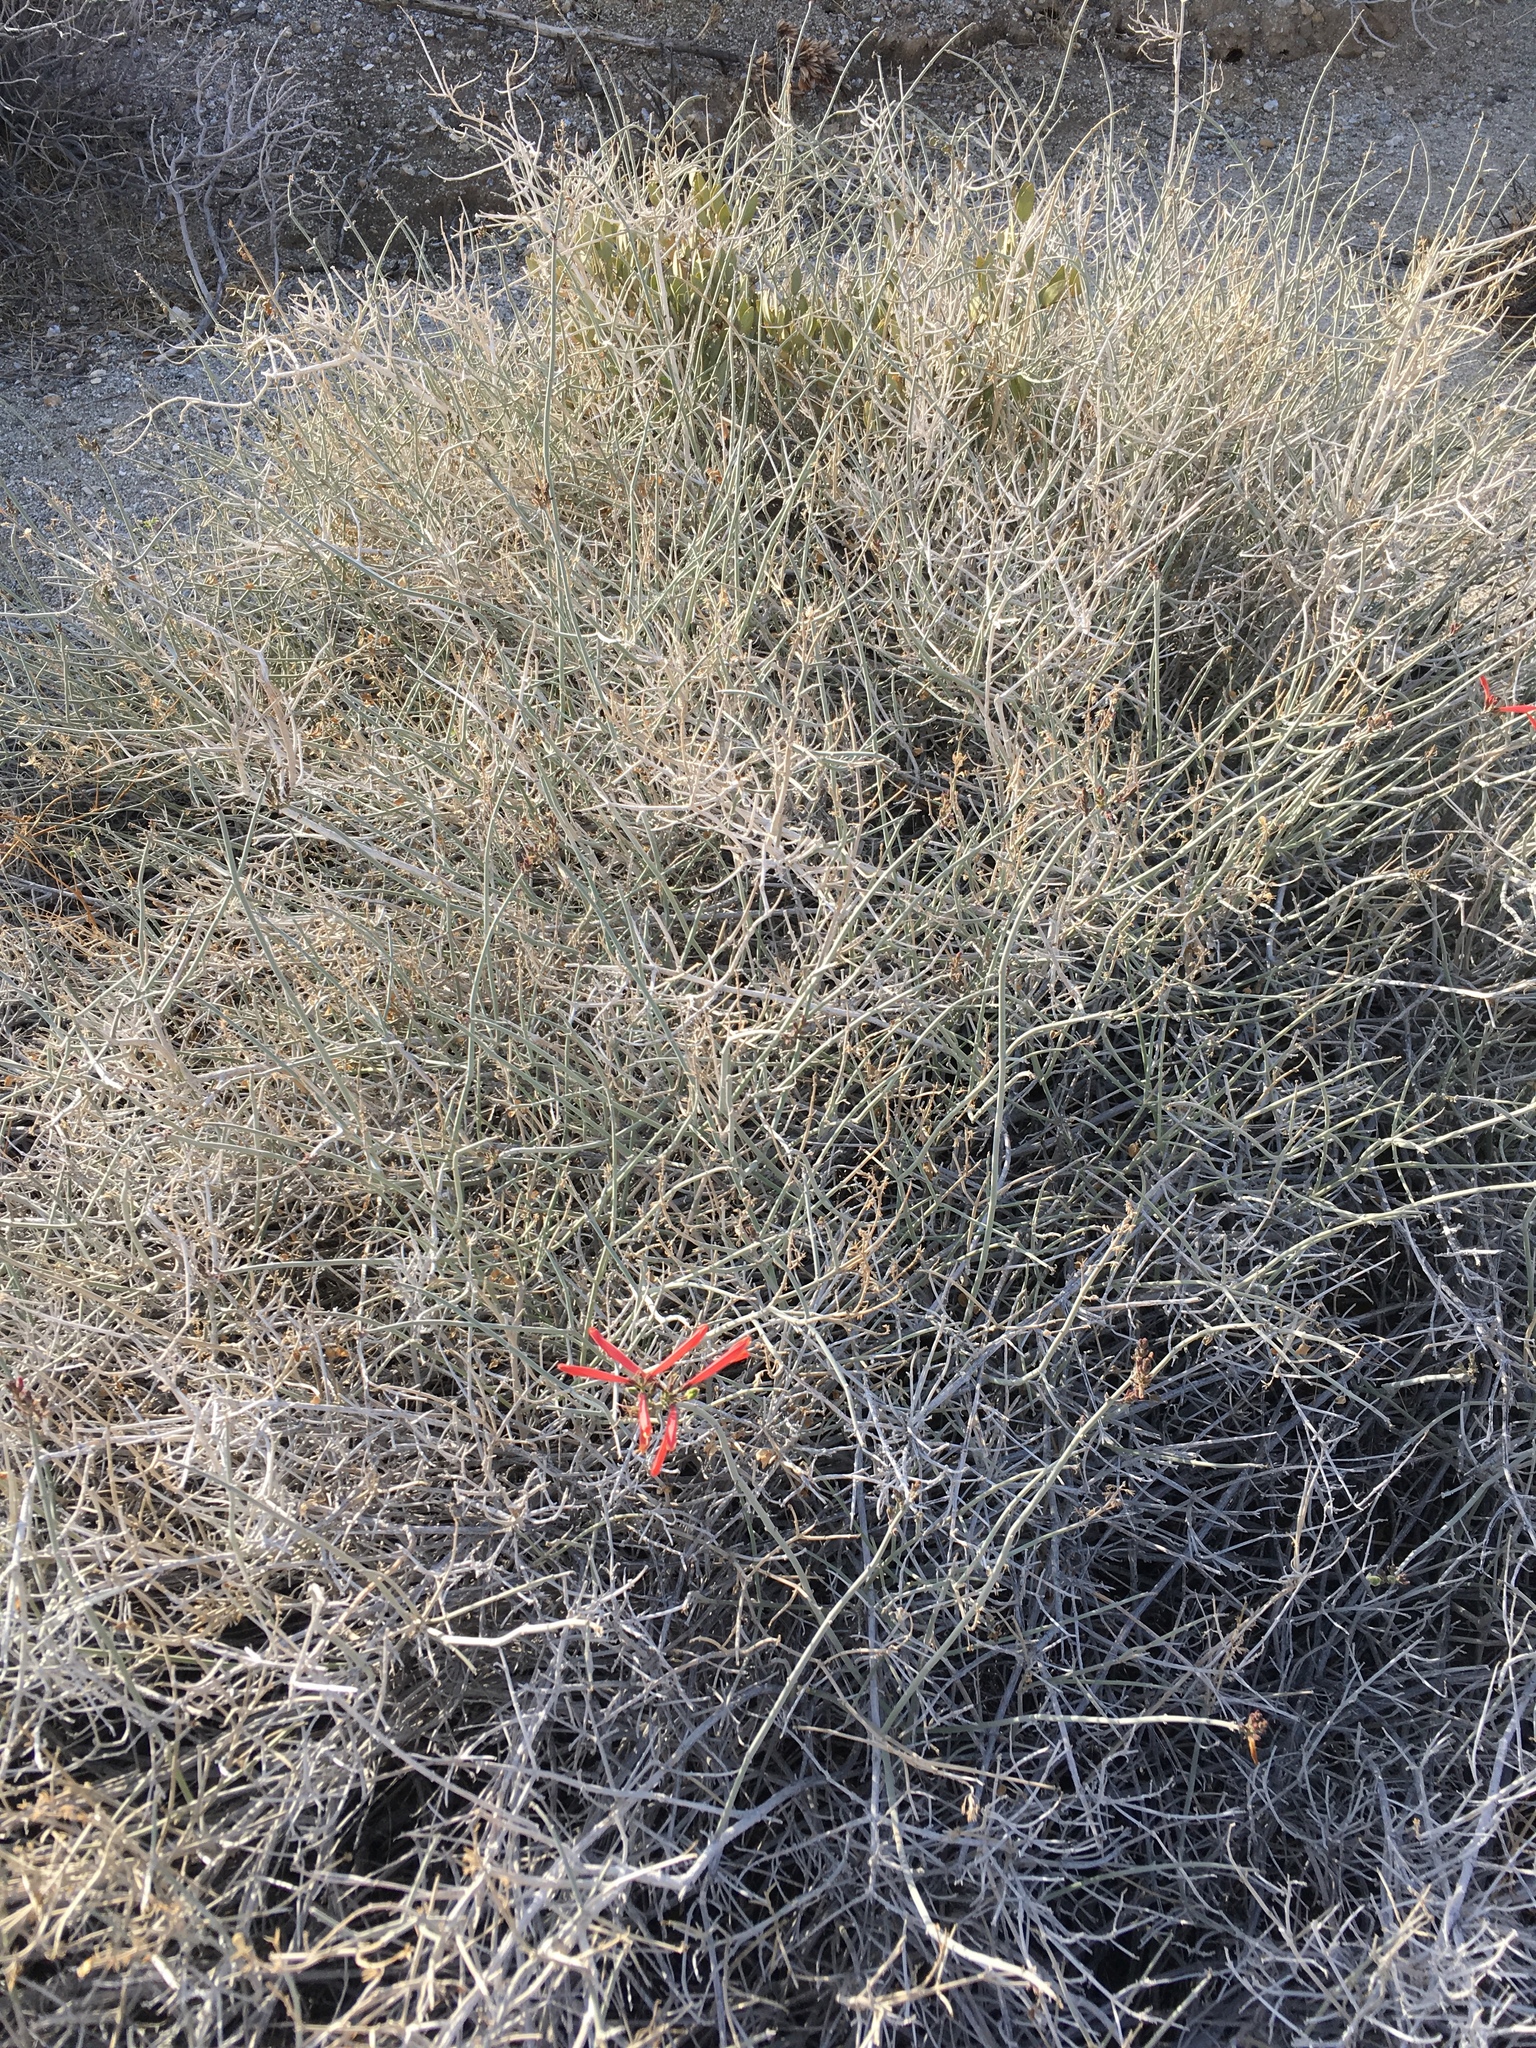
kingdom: Plantae
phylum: Tracheophyta
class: Magnoliopsida
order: Lamiales
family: Acanthaceae
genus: Justicia
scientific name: Justicia californica
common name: Chuparosa-honeysuckle
